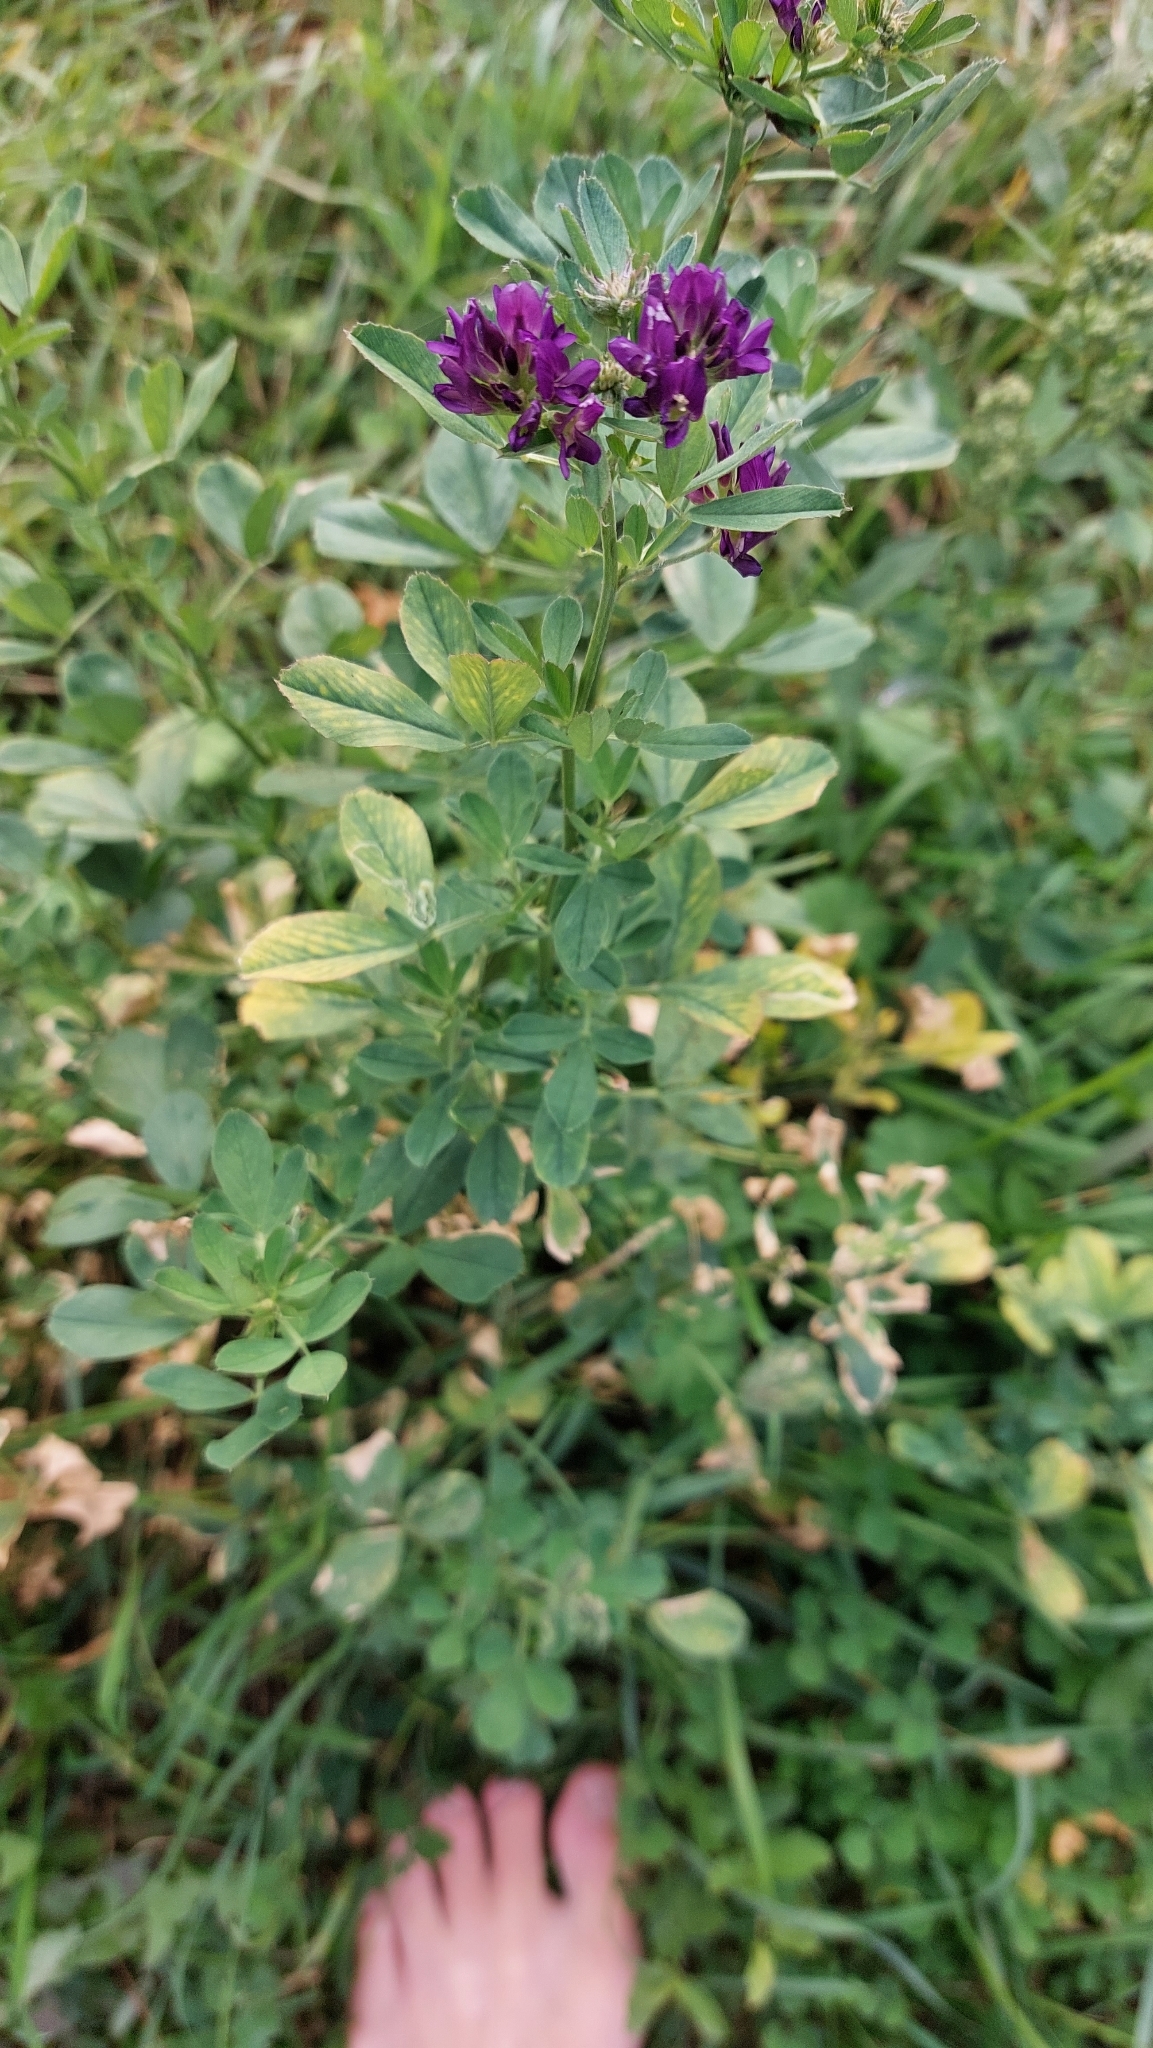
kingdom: Plantae
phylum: Tracheophyta
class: Magnoliopsida
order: Fabales
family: Fabaceae
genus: Medicago
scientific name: Medicago sativa
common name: Alfalfa
